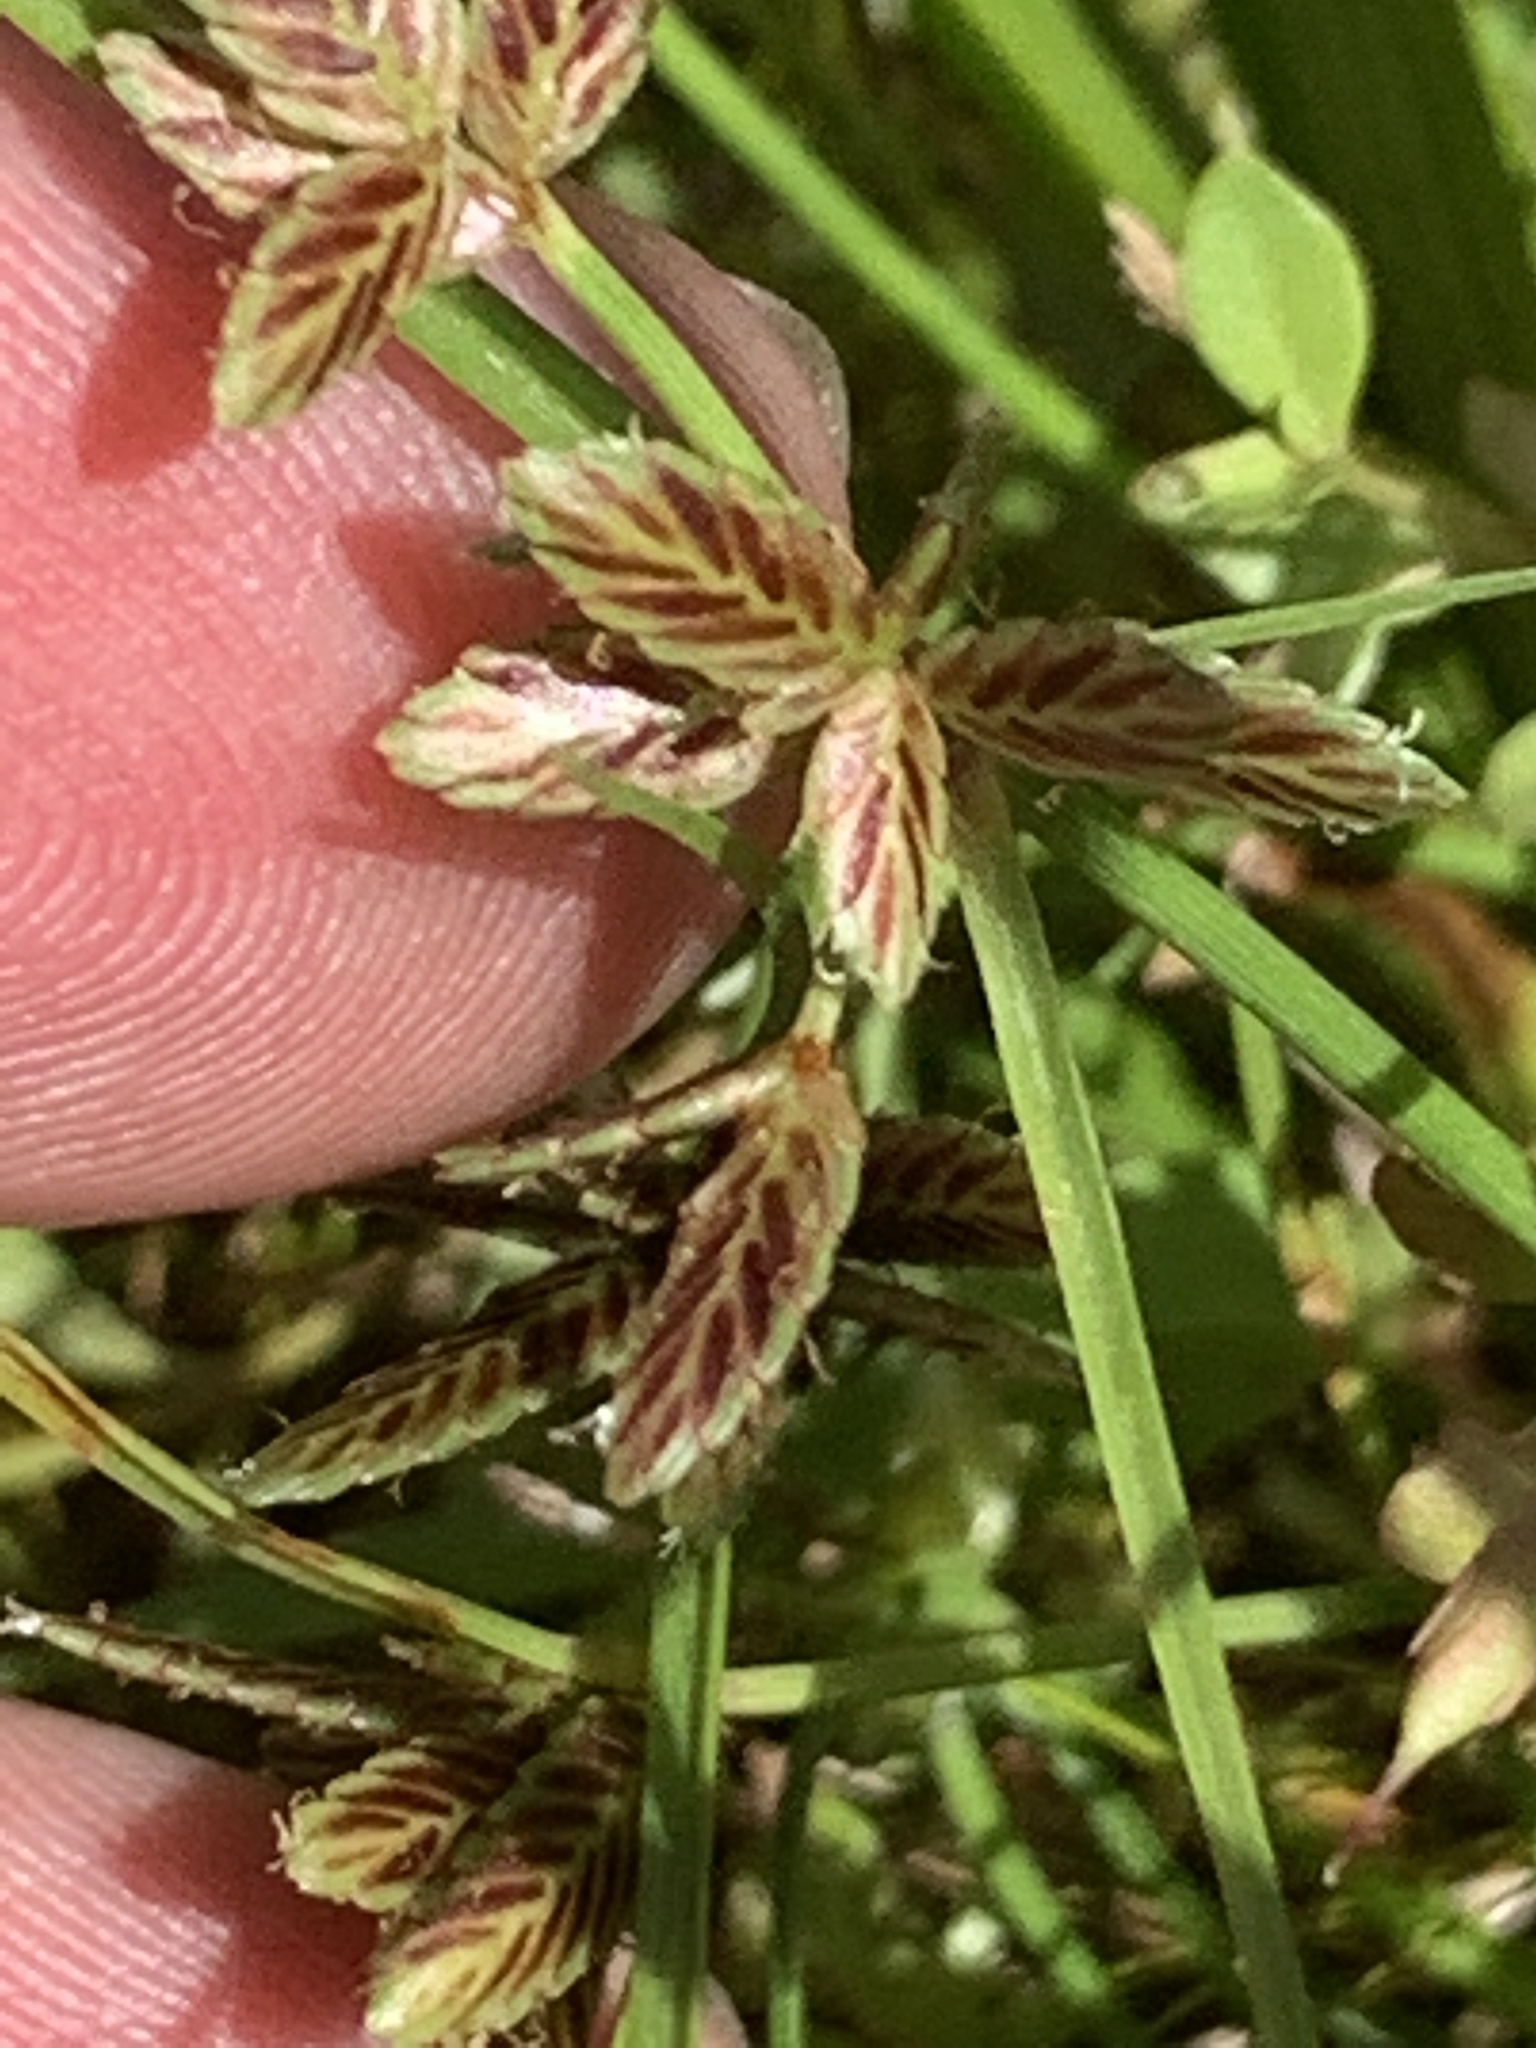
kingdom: Plantae
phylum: Tracheophyta
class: Liliopsida
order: Poales
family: Cyperaceae
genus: Cyperus
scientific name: Cyperus bipartitus
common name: Brook flatsedge
